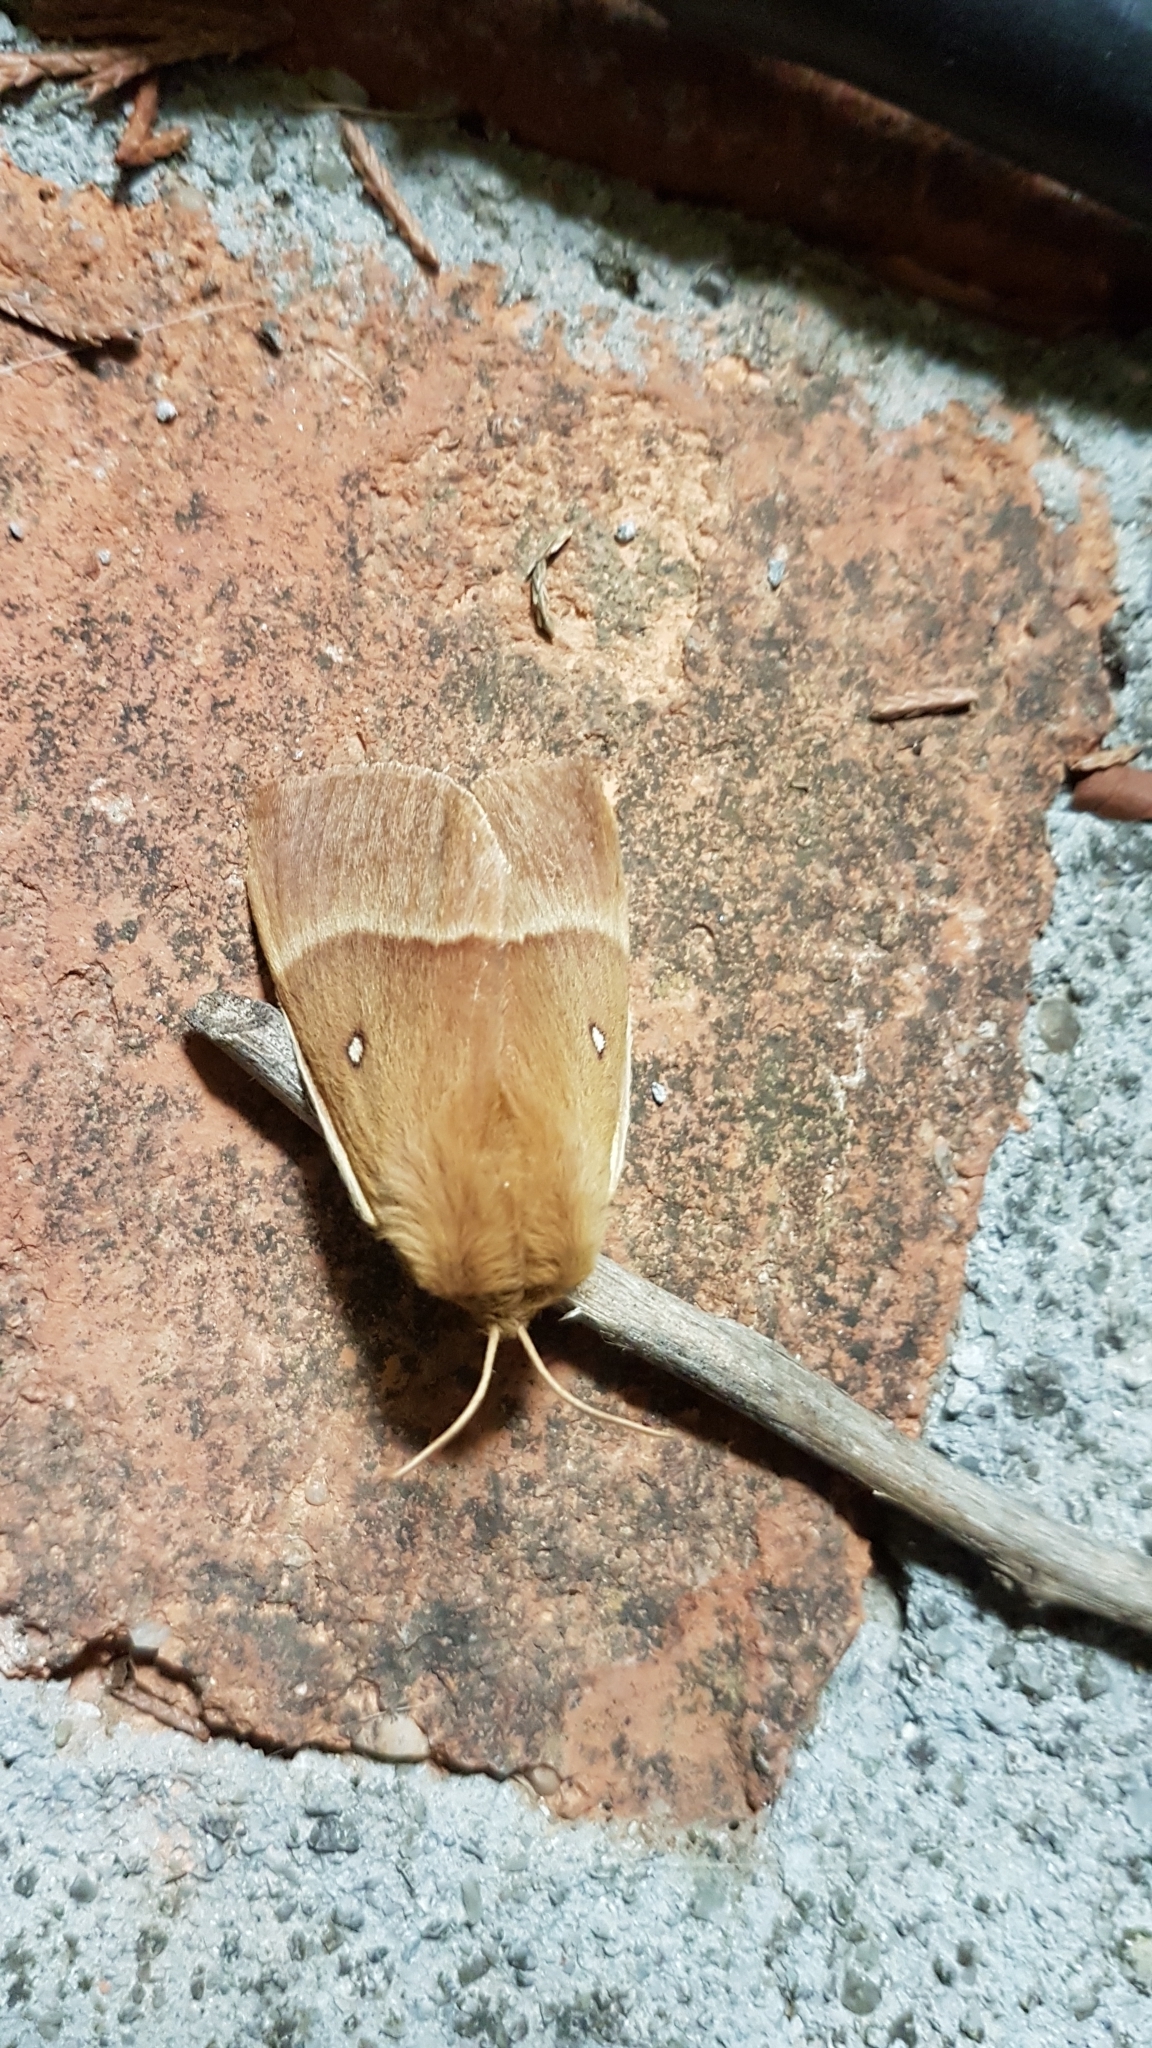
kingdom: Animalia
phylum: Arthropoda
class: Insecta
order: Lepidoptera
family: Lasiocampidae
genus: Lasiocampa
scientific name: Lasiocampa quercus
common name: Oak eggar
